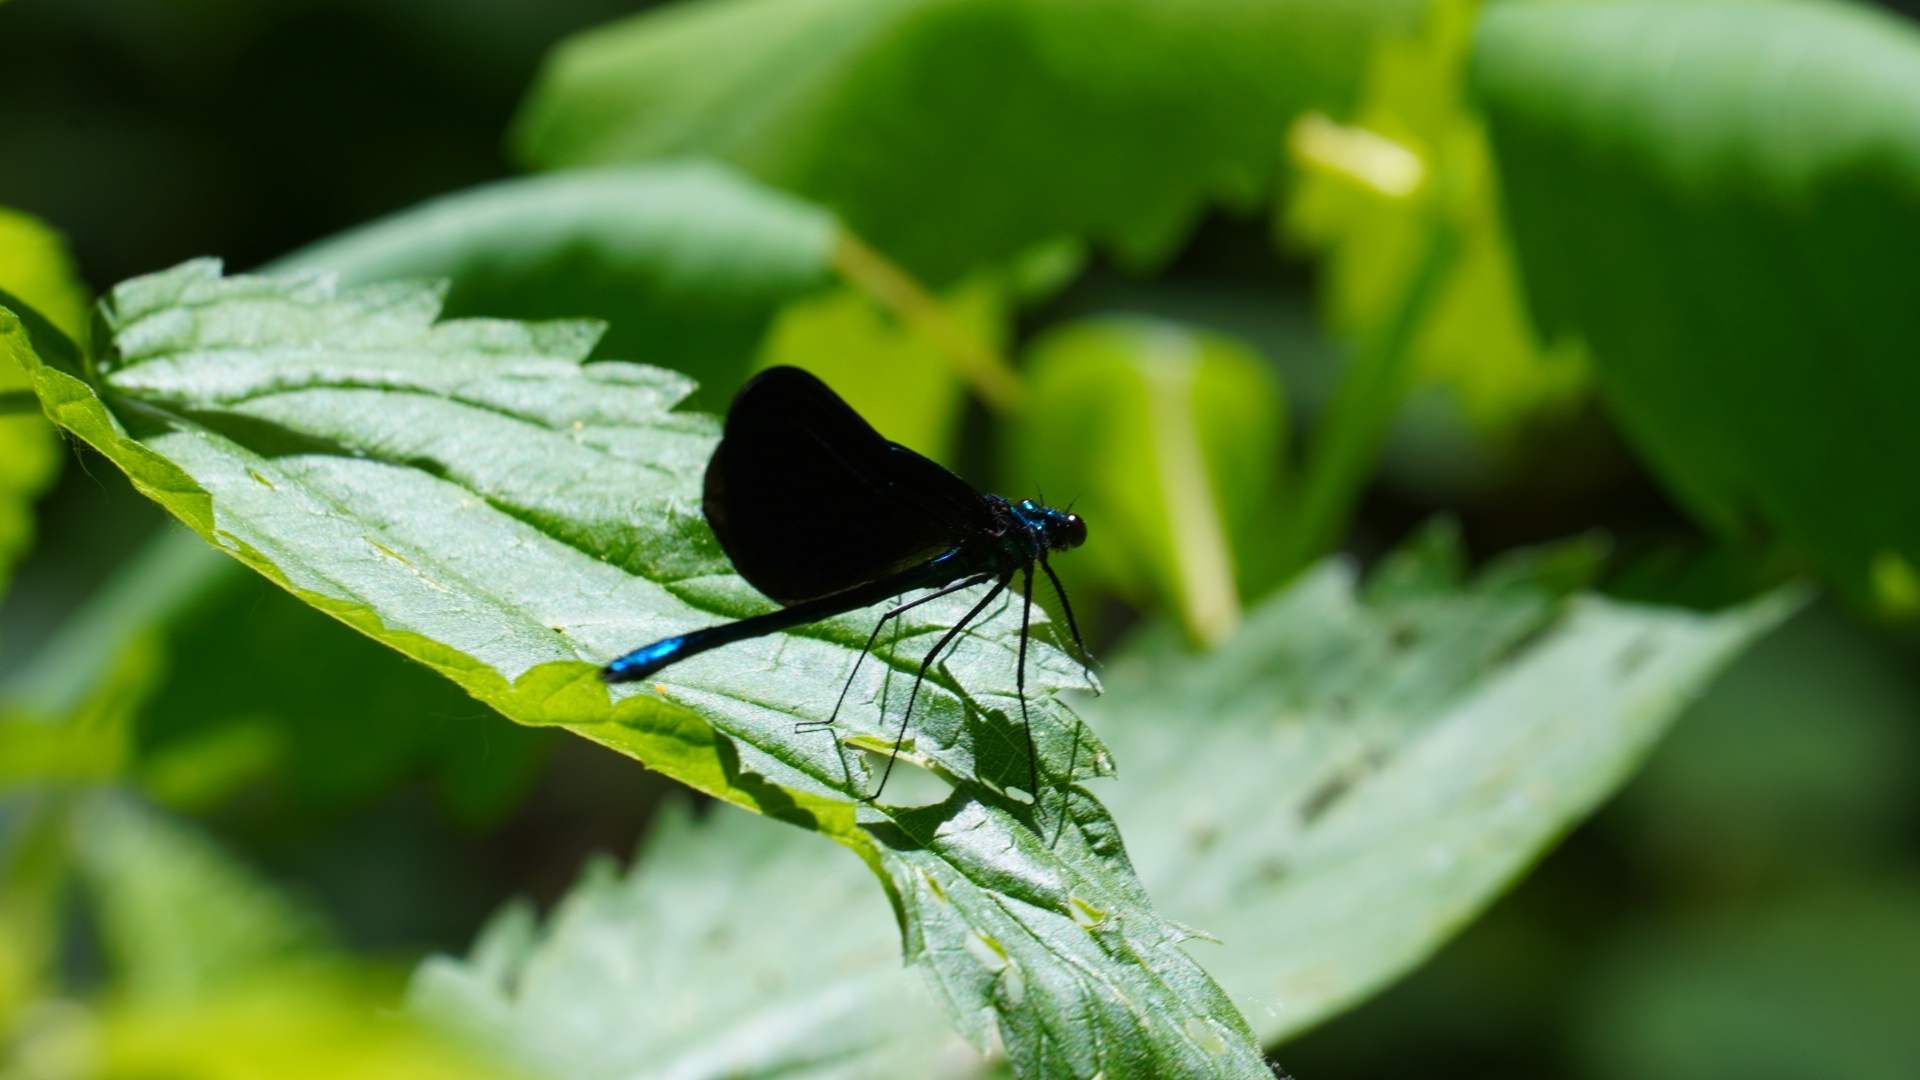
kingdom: Animalia
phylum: Arthropoda
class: Insecta
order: Odonata
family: Calopterygidae
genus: Calopteryx
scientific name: Calopteryx maculata
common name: Ebony jewelwing
